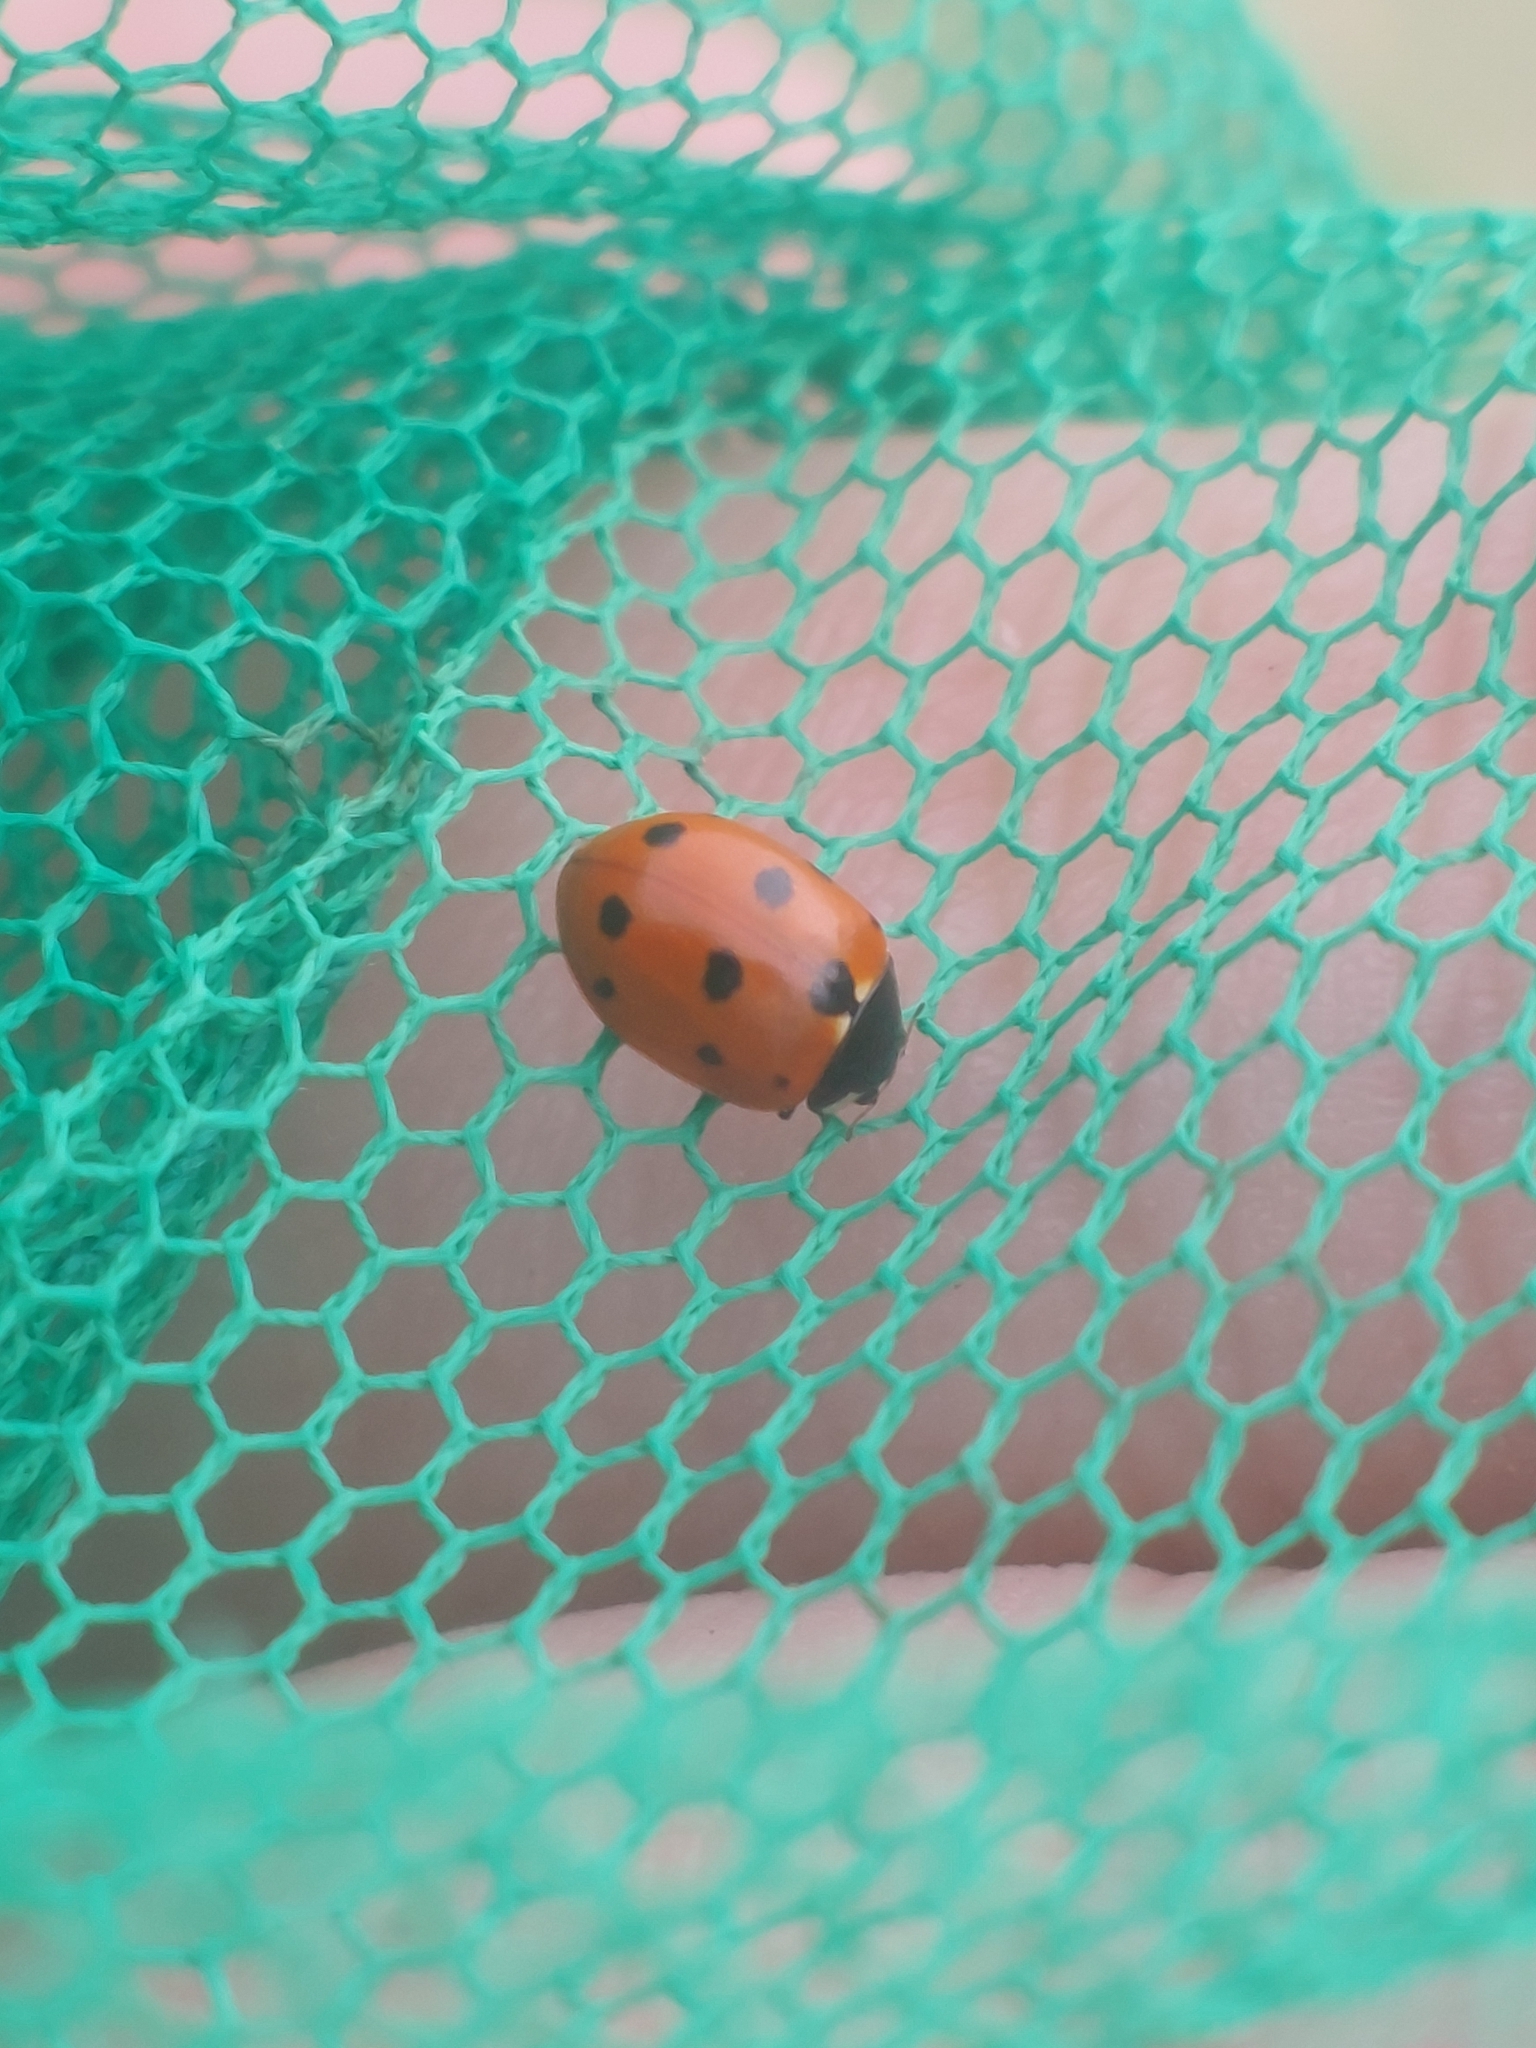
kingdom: Animalia
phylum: Arthropoda
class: Insecta
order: Coleoptera
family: Coccinellidae
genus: Coccinella
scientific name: Coccinella undecimpunctata
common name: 11-spot ladybird
